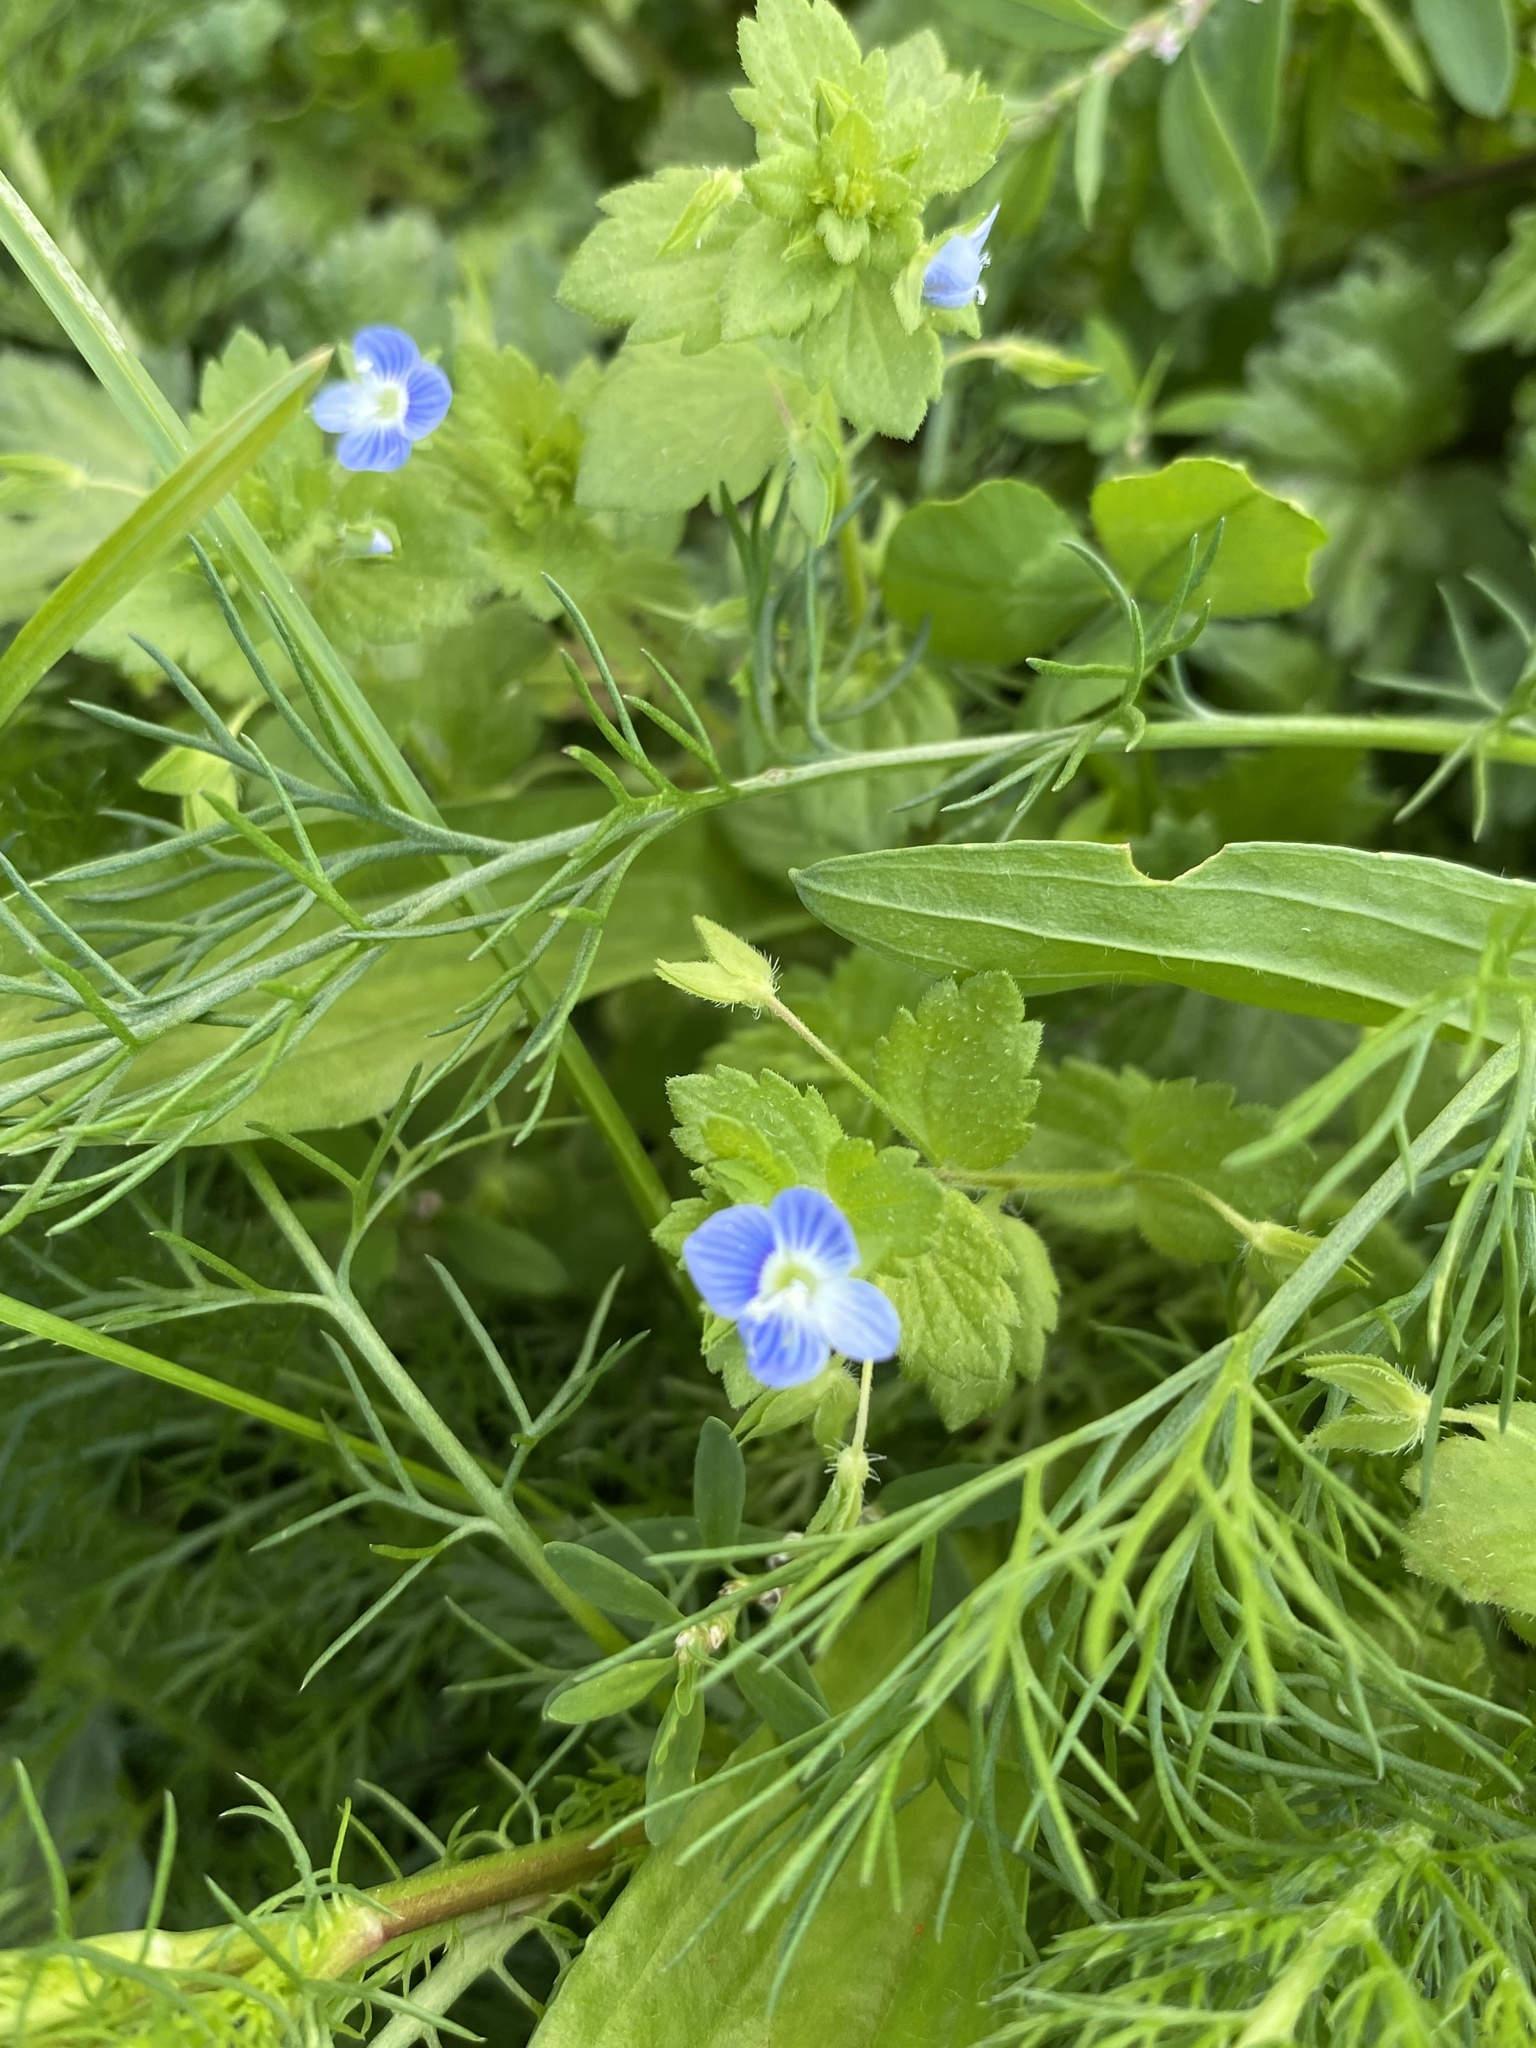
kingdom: Plantae
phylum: Tracheophyta
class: Magnoliopsida
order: Lamiales
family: Plantaginaceae
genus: Veronica
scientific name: Veronica persica
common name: Common field-speedwell
